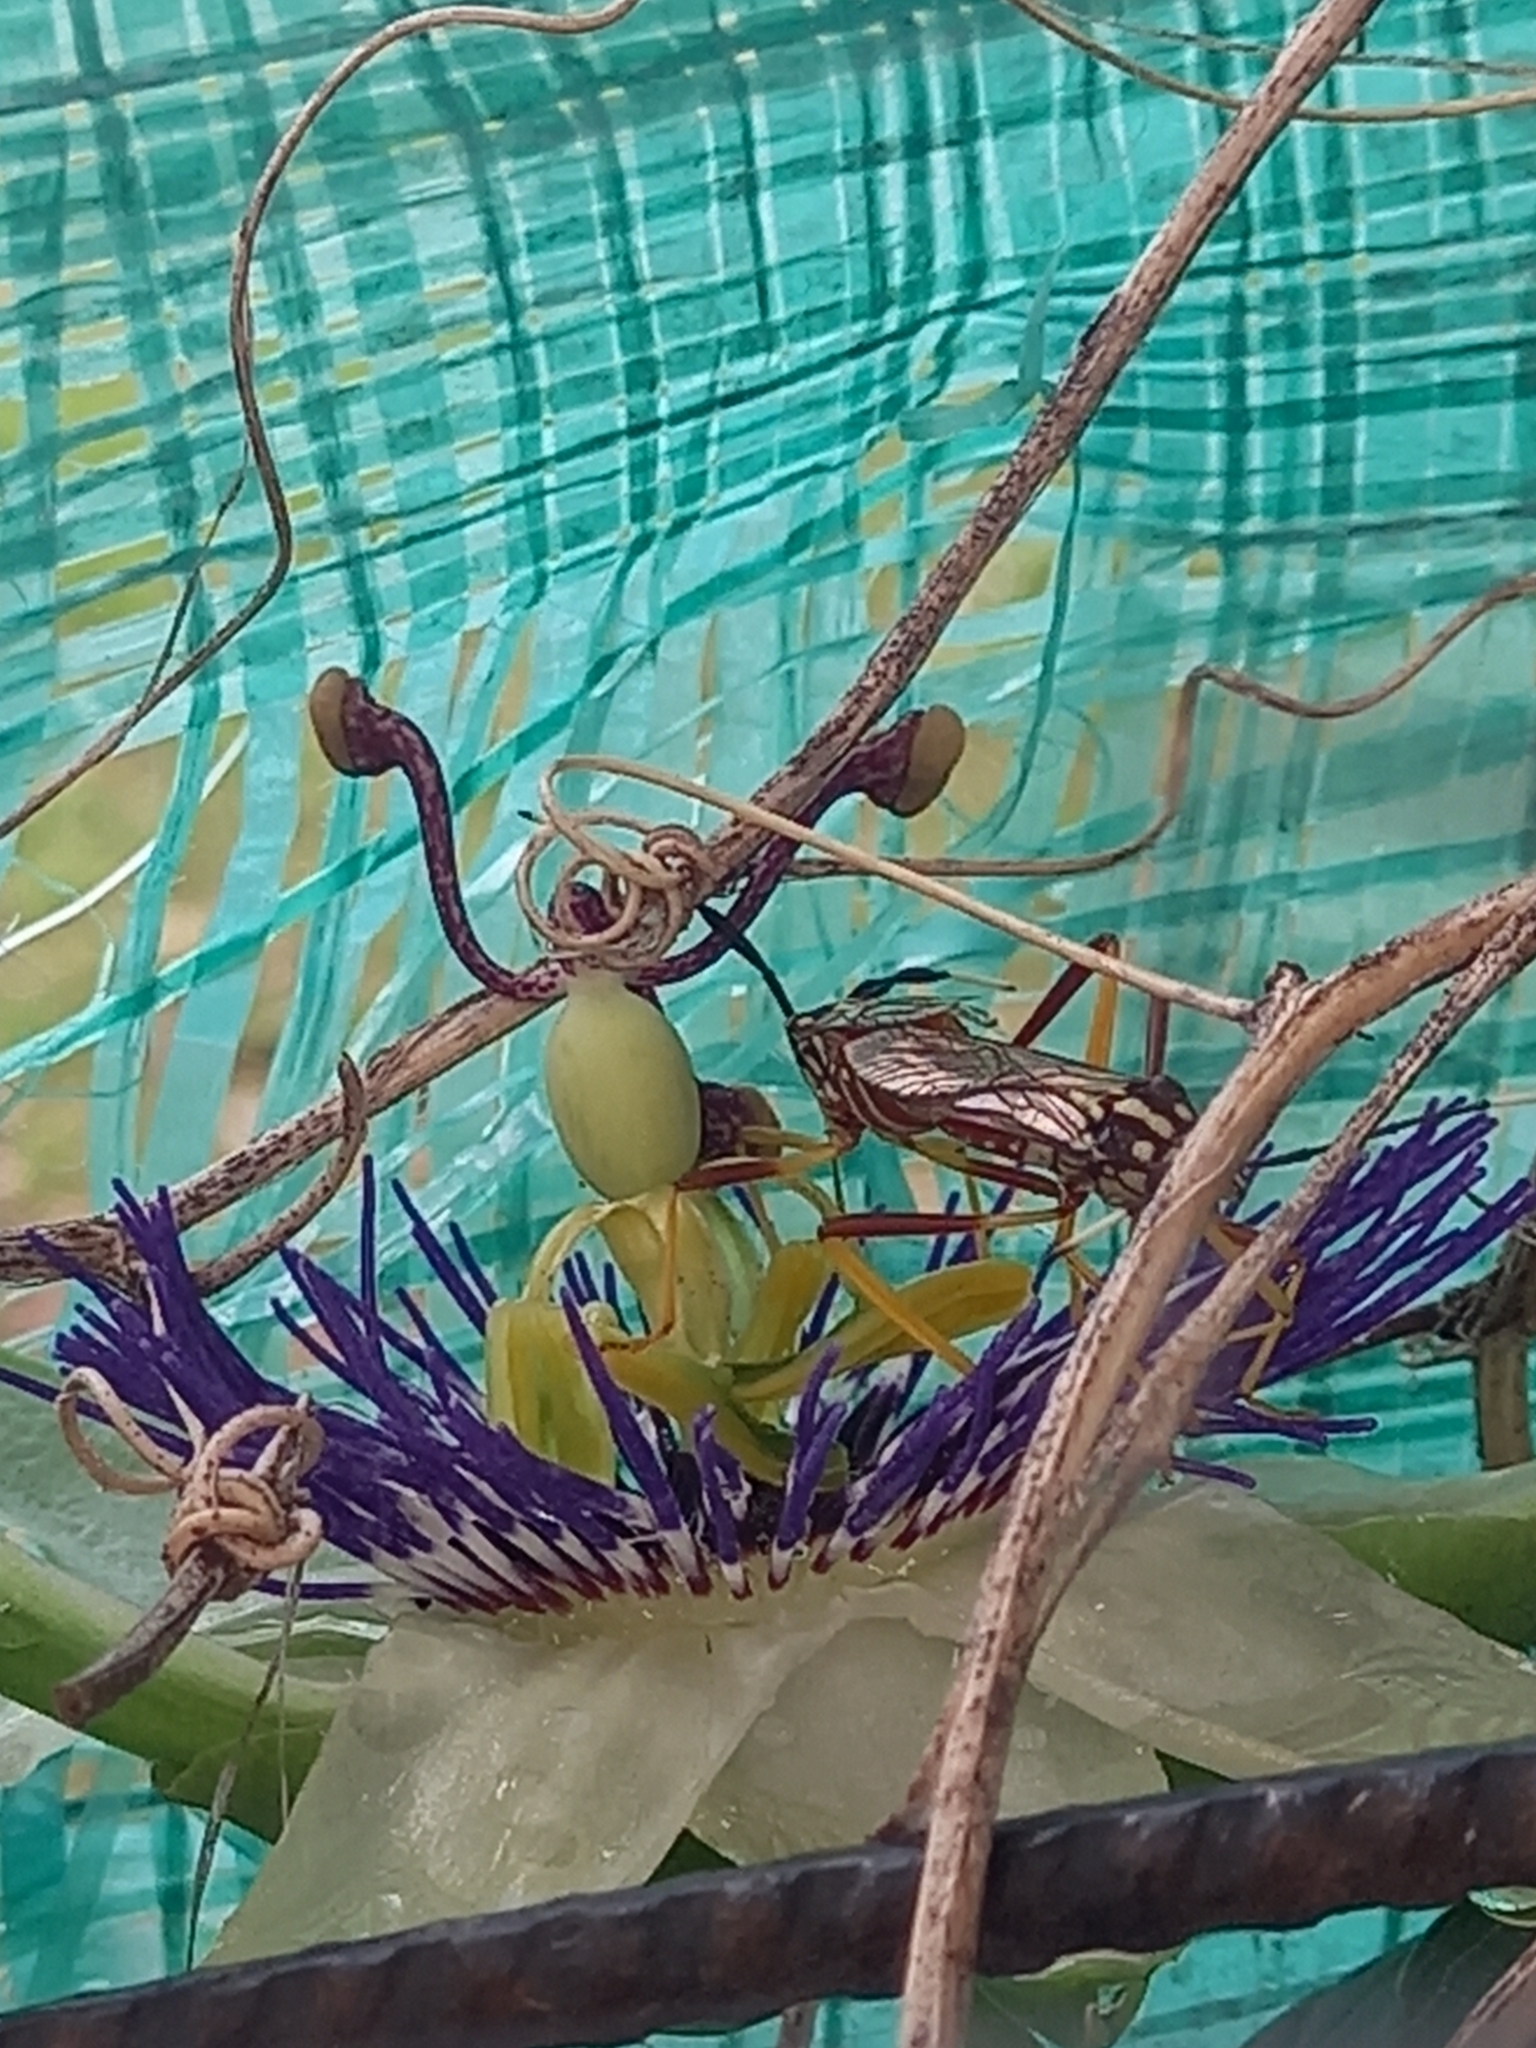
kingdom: Animalia
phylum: Arthropoda
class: Insecta
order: Hemiptera
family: Coreidae
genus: Holhymenia
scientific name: Holhymenia histrio
